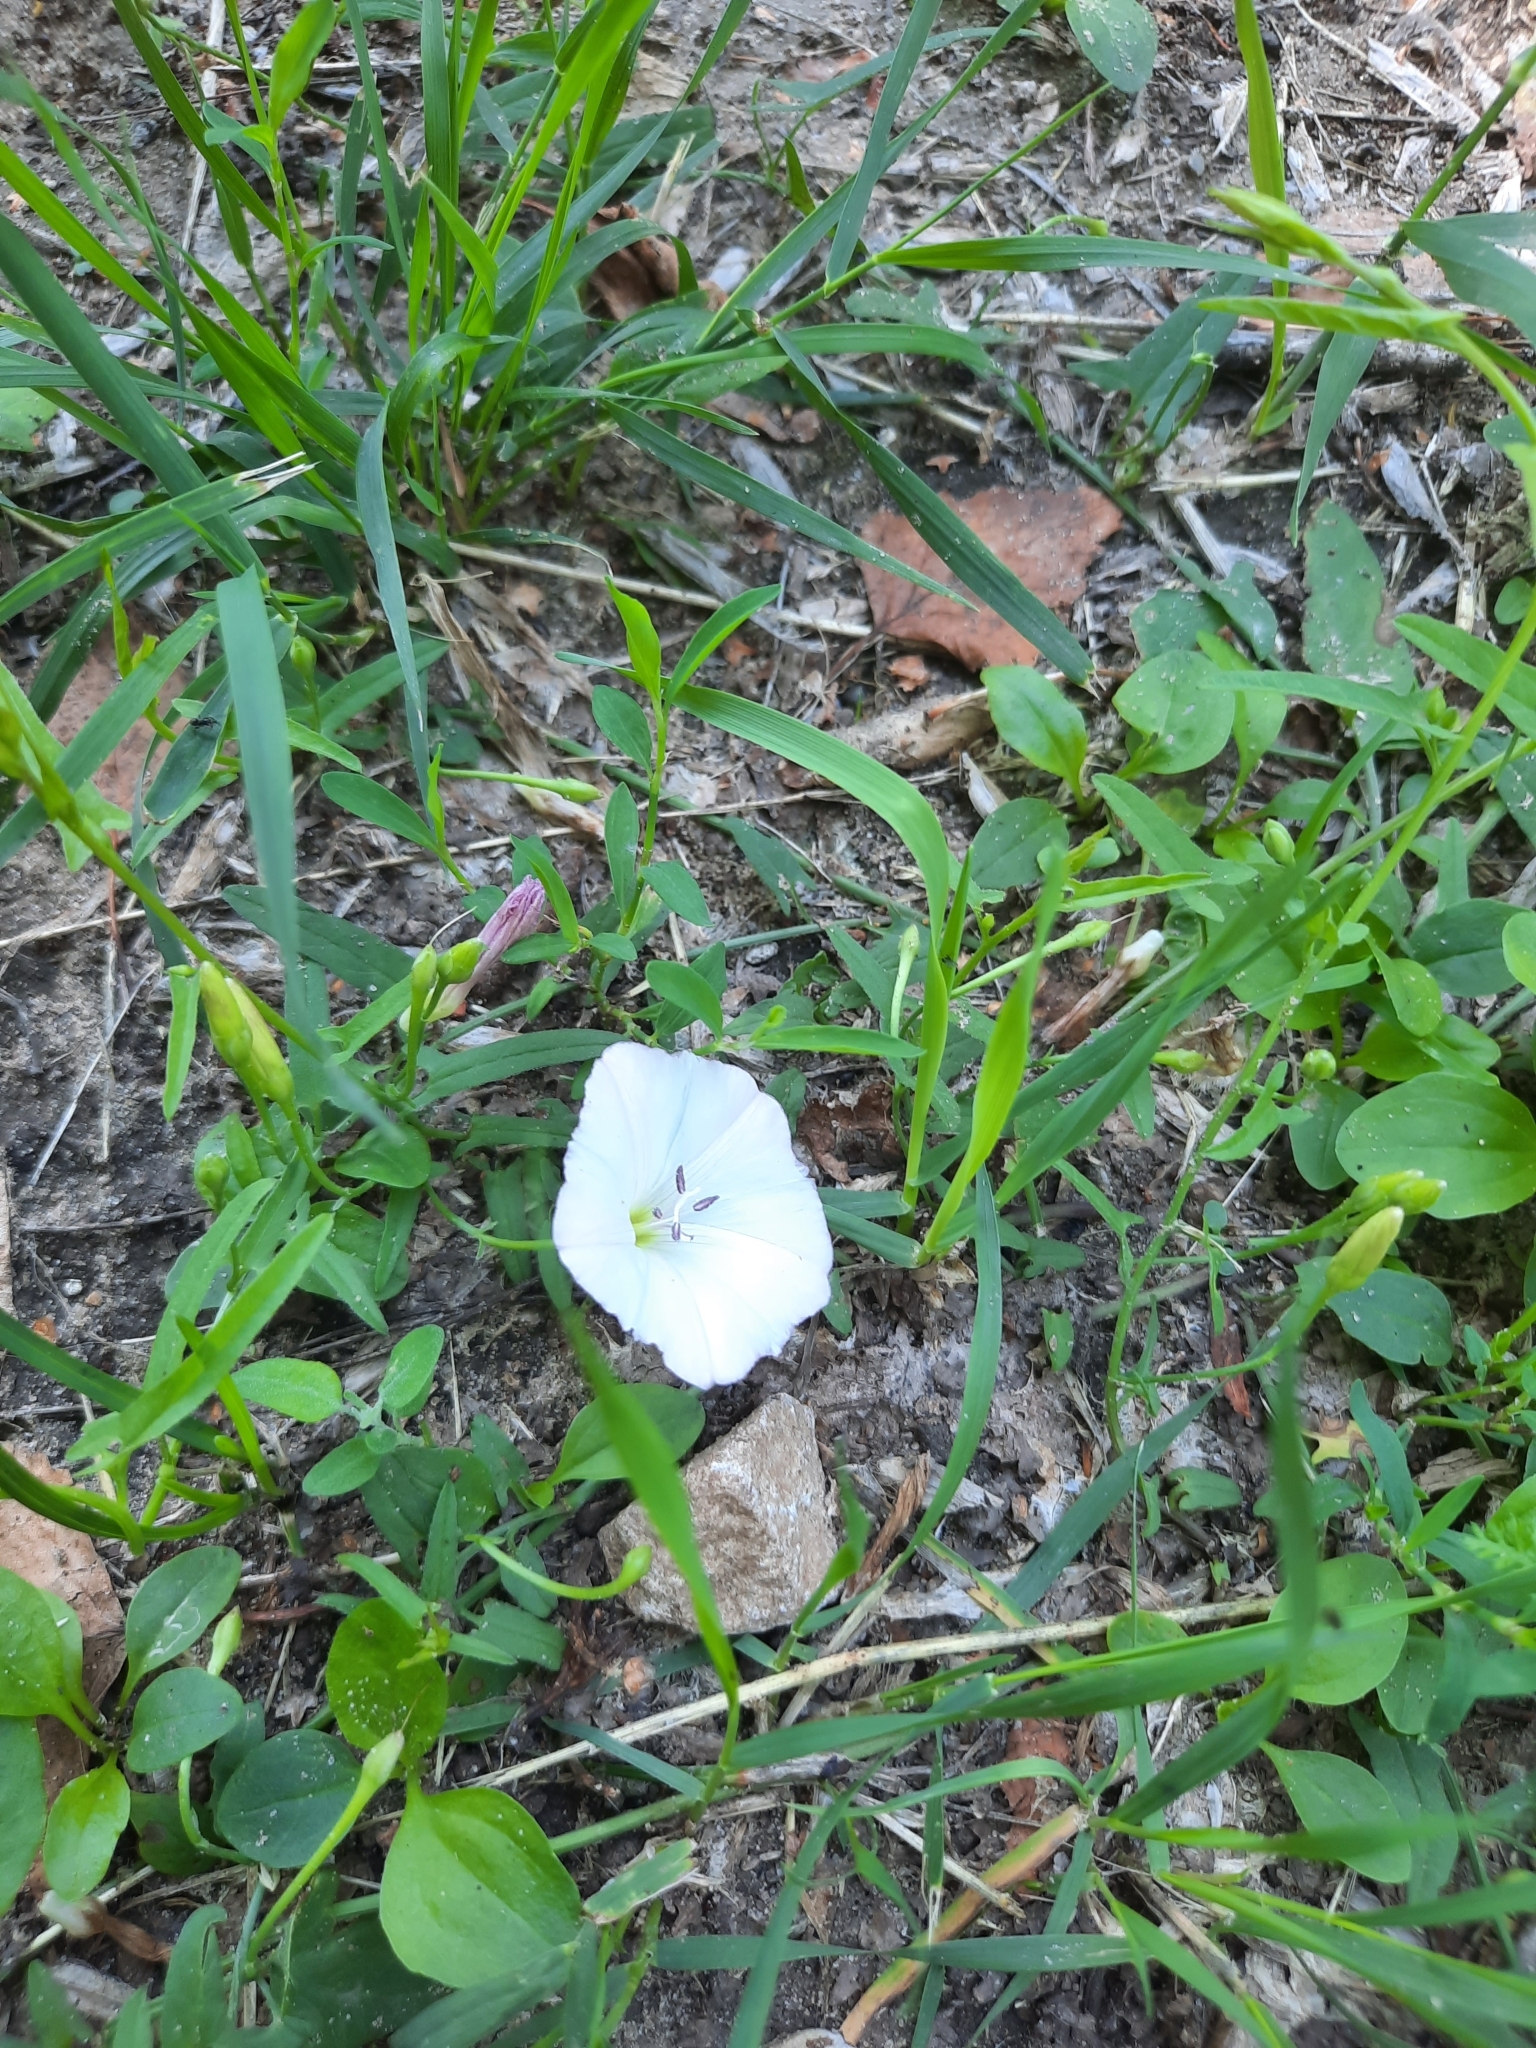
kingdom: Plantae
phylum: Tracheophyta
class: Magnoliopsida
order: Solanales
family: Convolvulaceae
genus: Convolvulus
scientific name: Convolvulus arvensis
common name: Field bindweed
